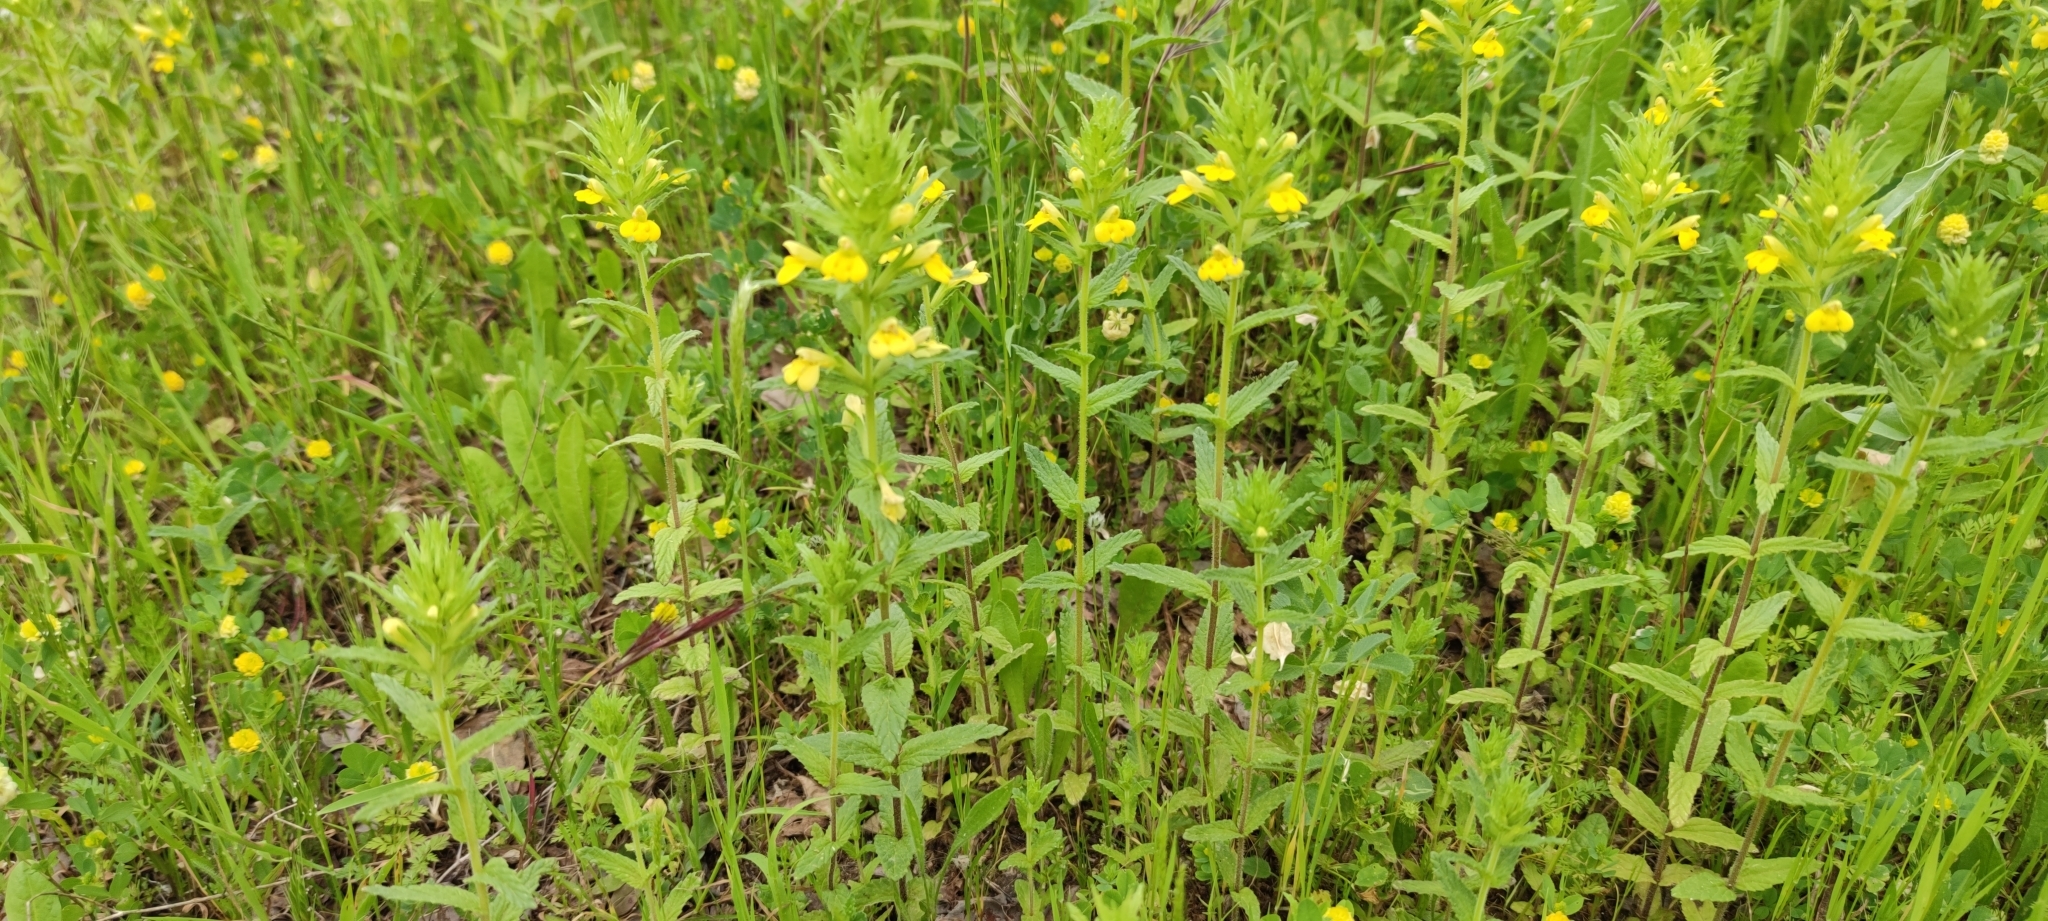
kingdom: Plantae
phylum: Tracheophyta
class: Magnoliopsida
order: Lamiales
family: Orobanchaceae
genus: Bellardia
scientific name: Bellardia viscosa
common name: Sticky parentucellia
